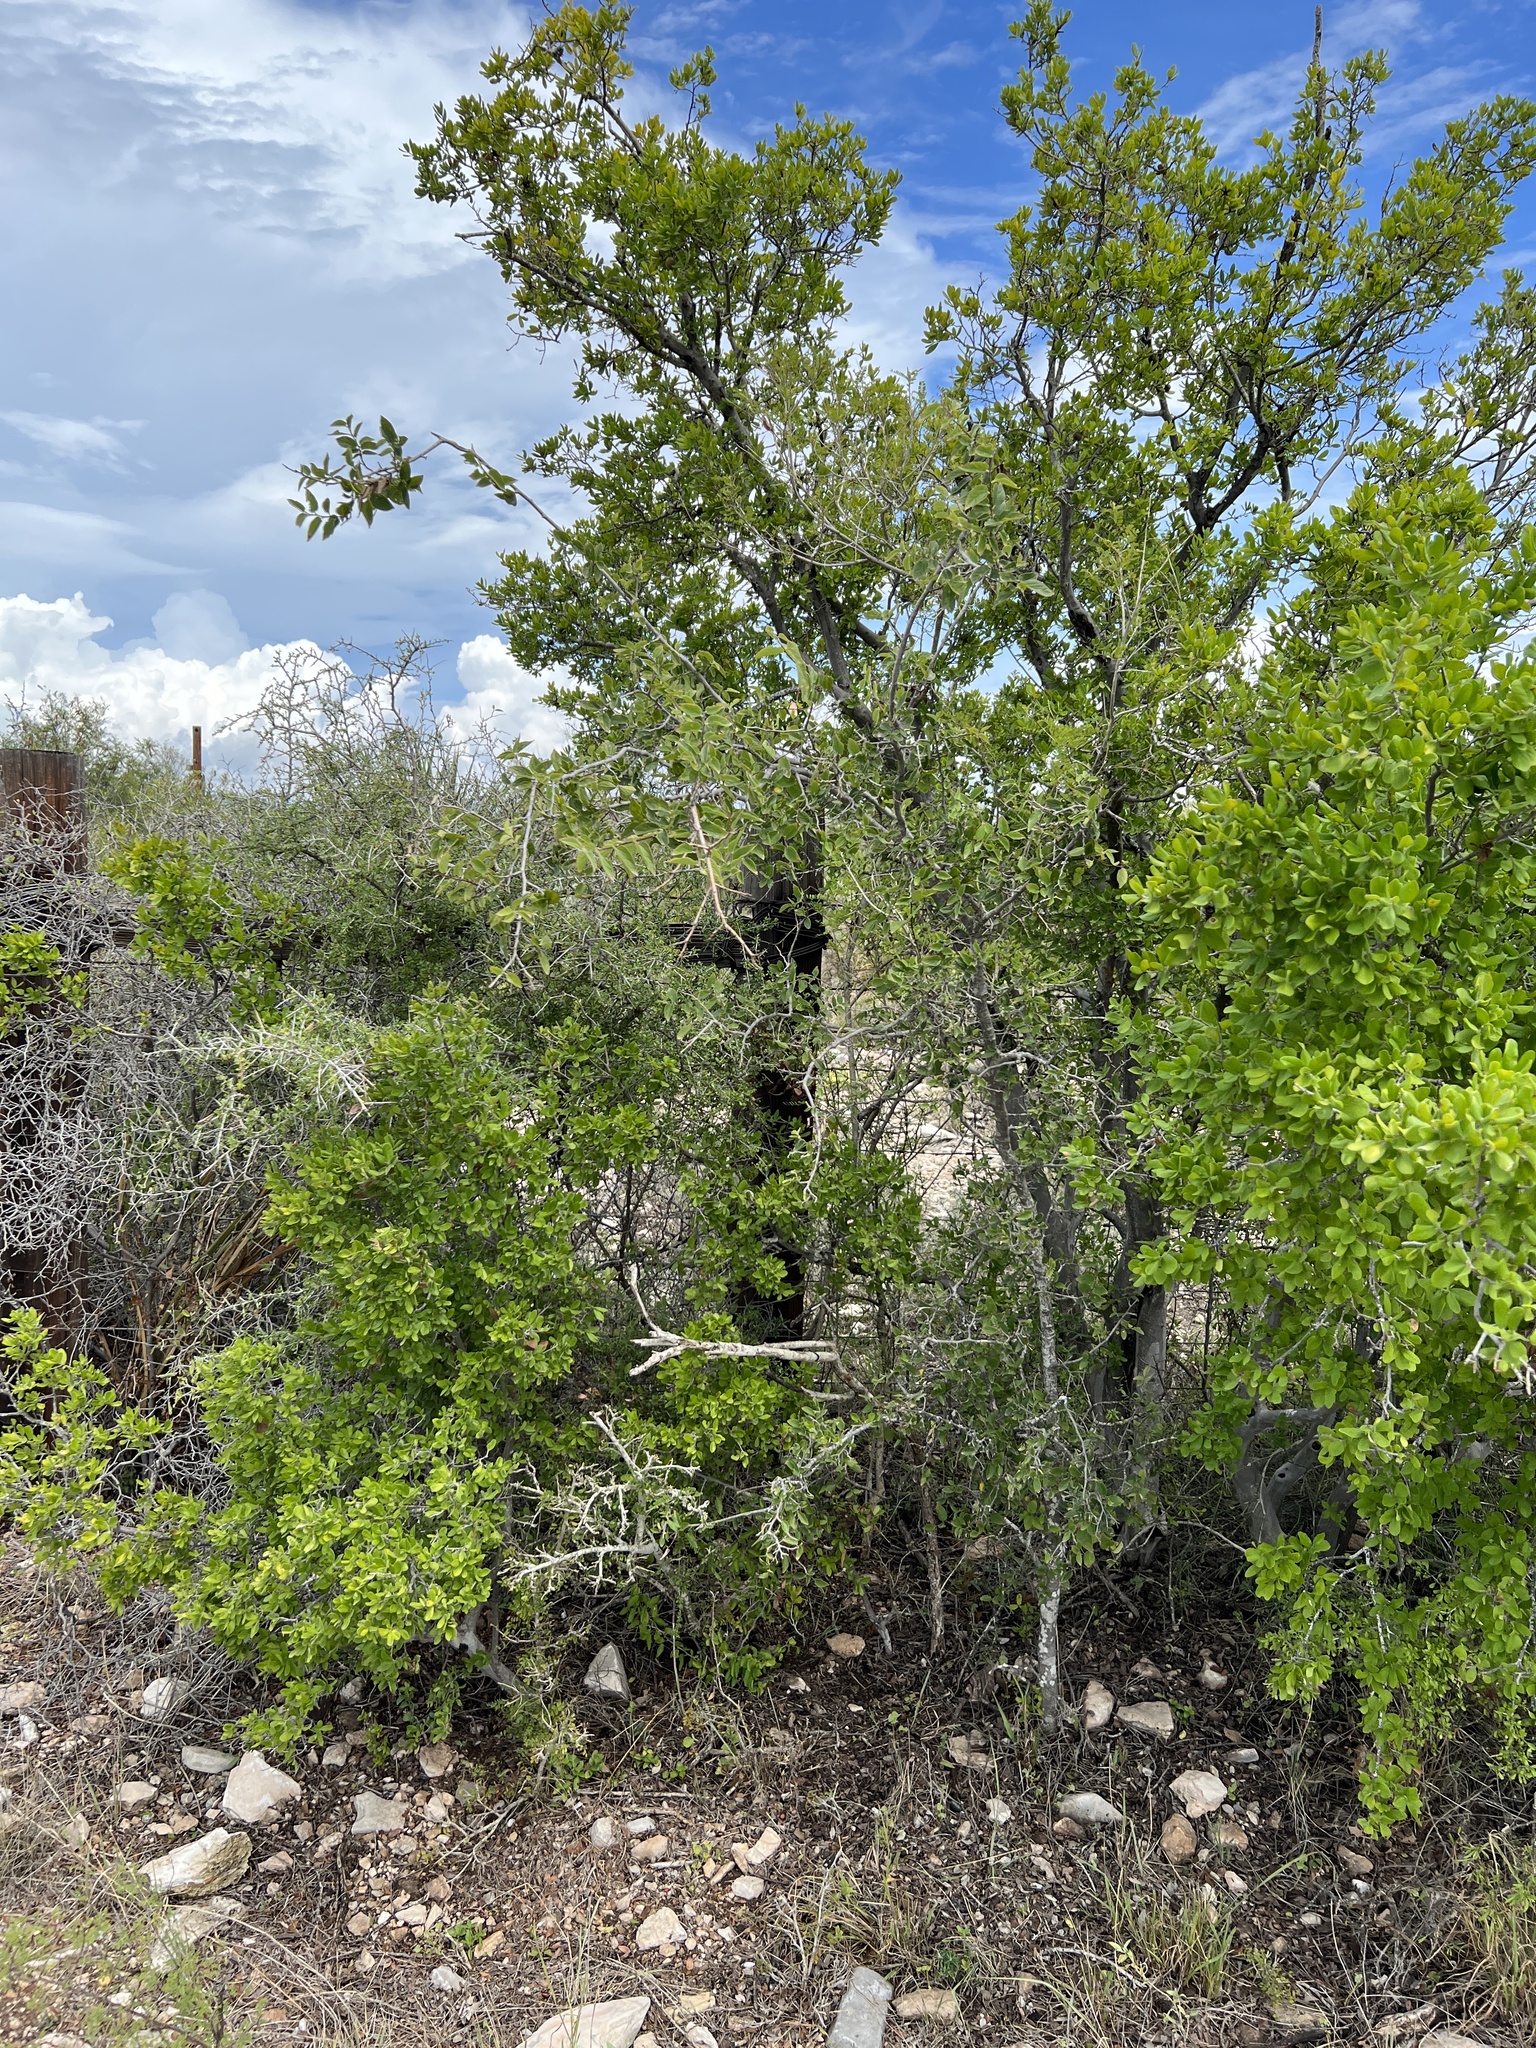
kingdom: Plantae
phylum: Tracheophyta
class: Magnoliopsida
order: Rosales
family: Cannabaceae
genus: Celtis
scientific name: Celtis reticulata
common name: Netleaf hackberry
